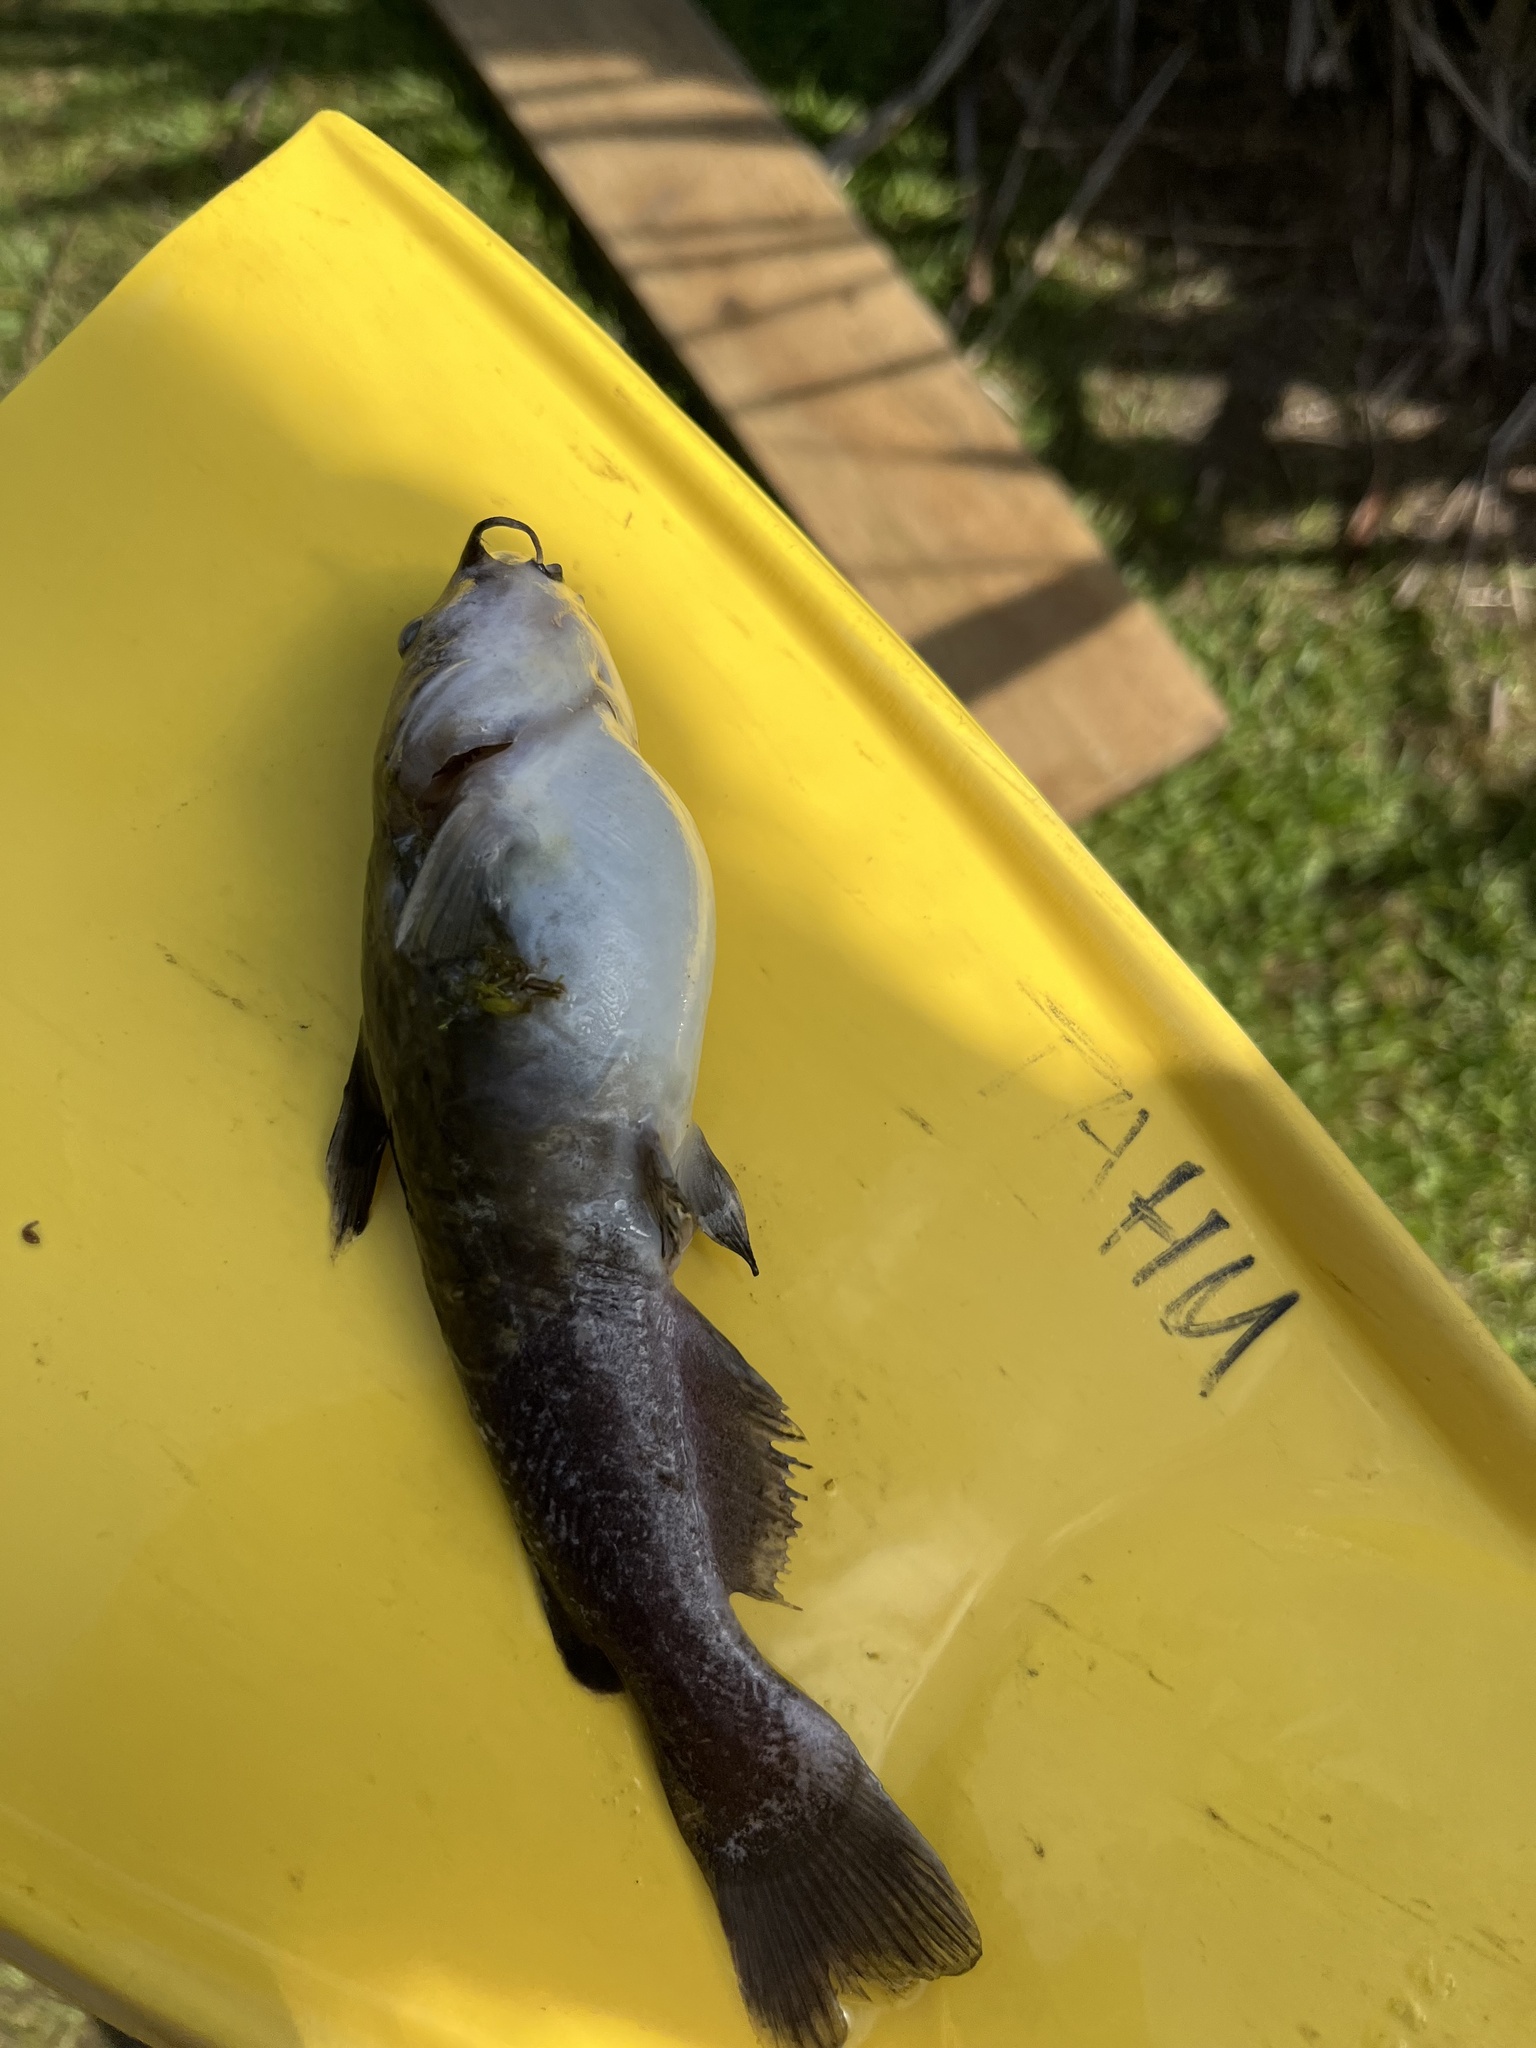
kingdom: Animalia
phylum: Chordata
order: Siluriformes
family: Ictaluridae
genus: Ameiurus
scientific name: Ameiurus nebulosus
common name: Brown bullhead
